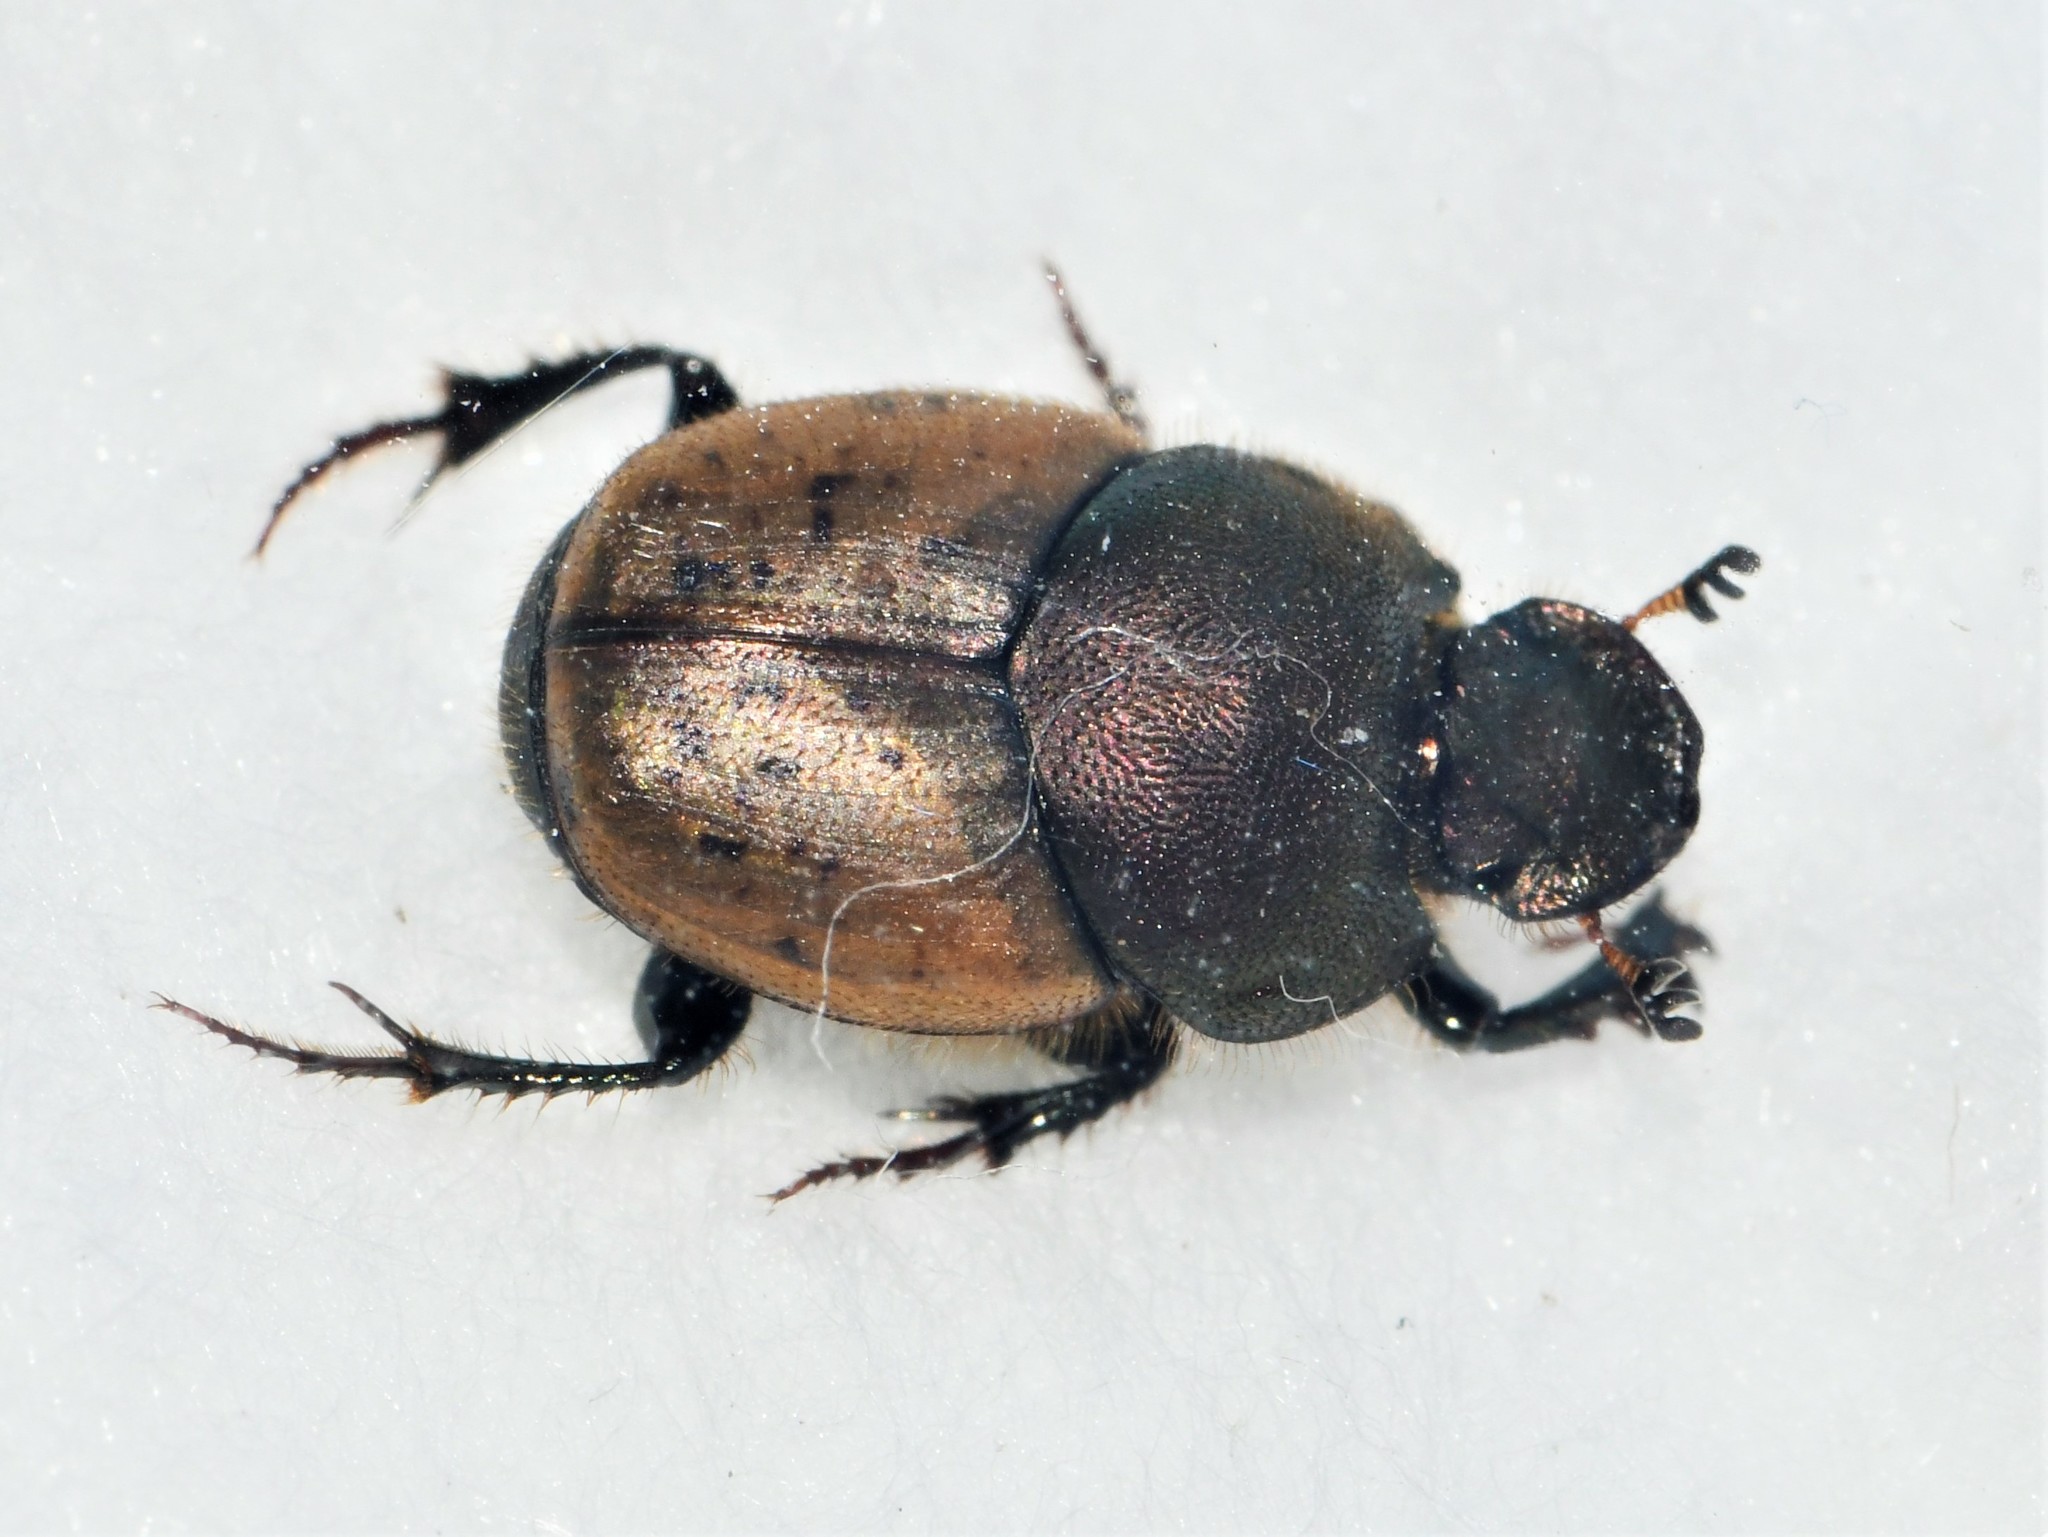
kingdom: Animalia
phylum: Arthropoda
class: Insecta
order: Coleoptera
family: Scarabaeidae
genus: Onthophagus
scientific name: Onthophagus coenobita
